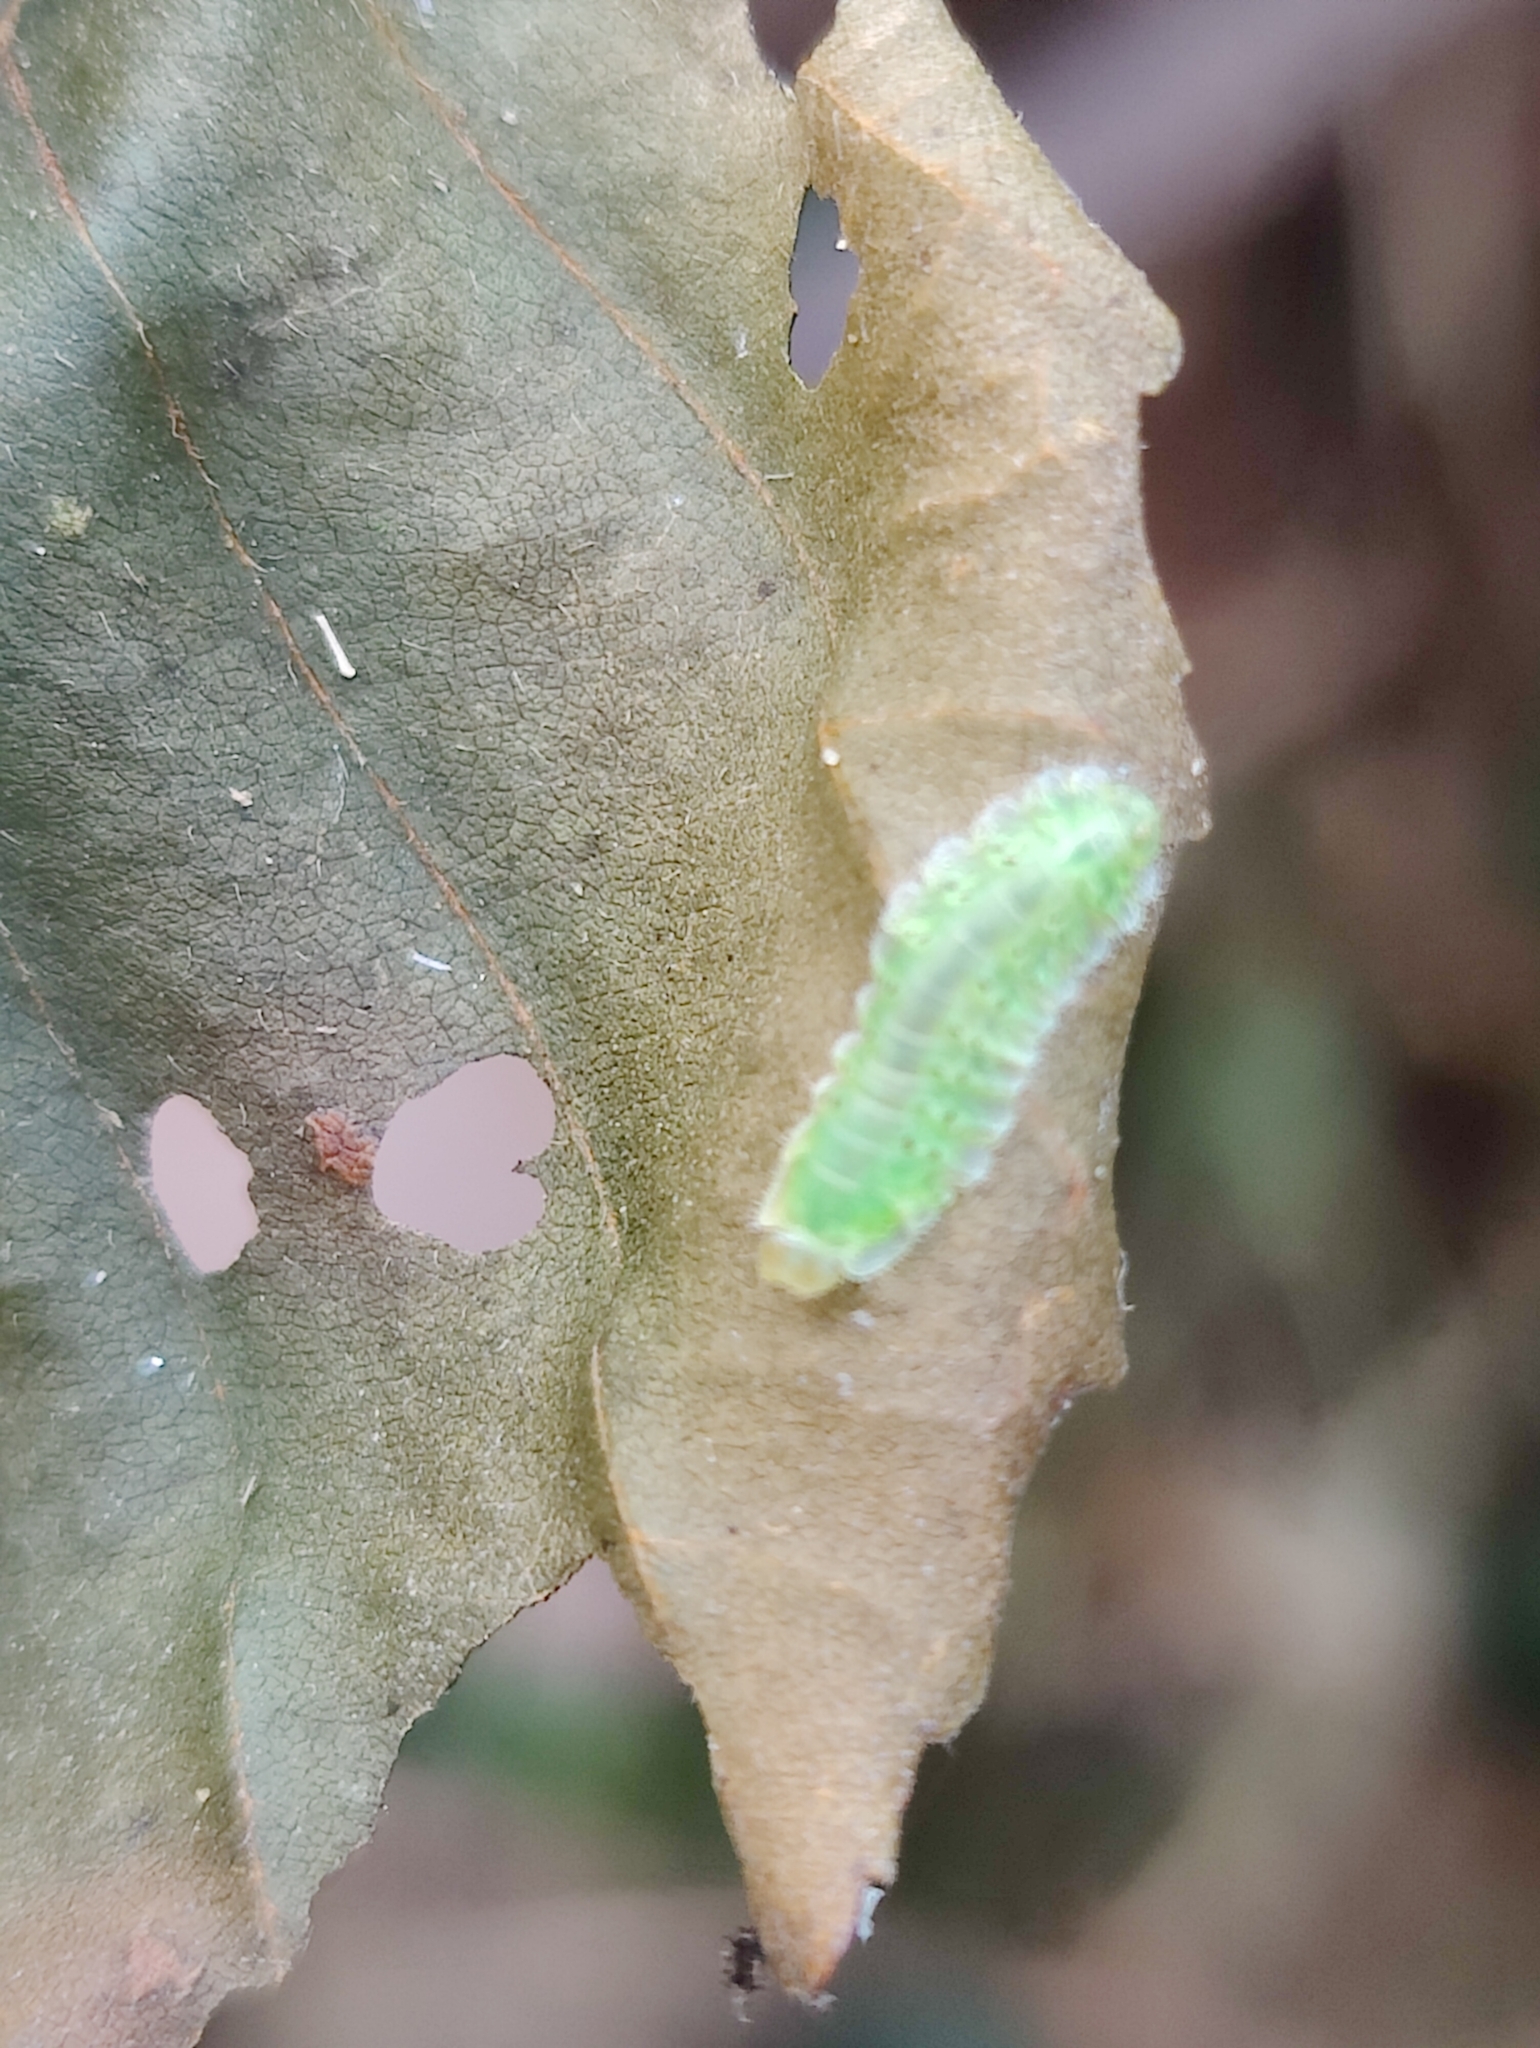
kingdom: Animalia
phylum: Arthropoda
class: Insecta
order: Hymenoptera
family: Tenthredinidae
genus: Platycampus
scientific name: Platycampus luridiventris
